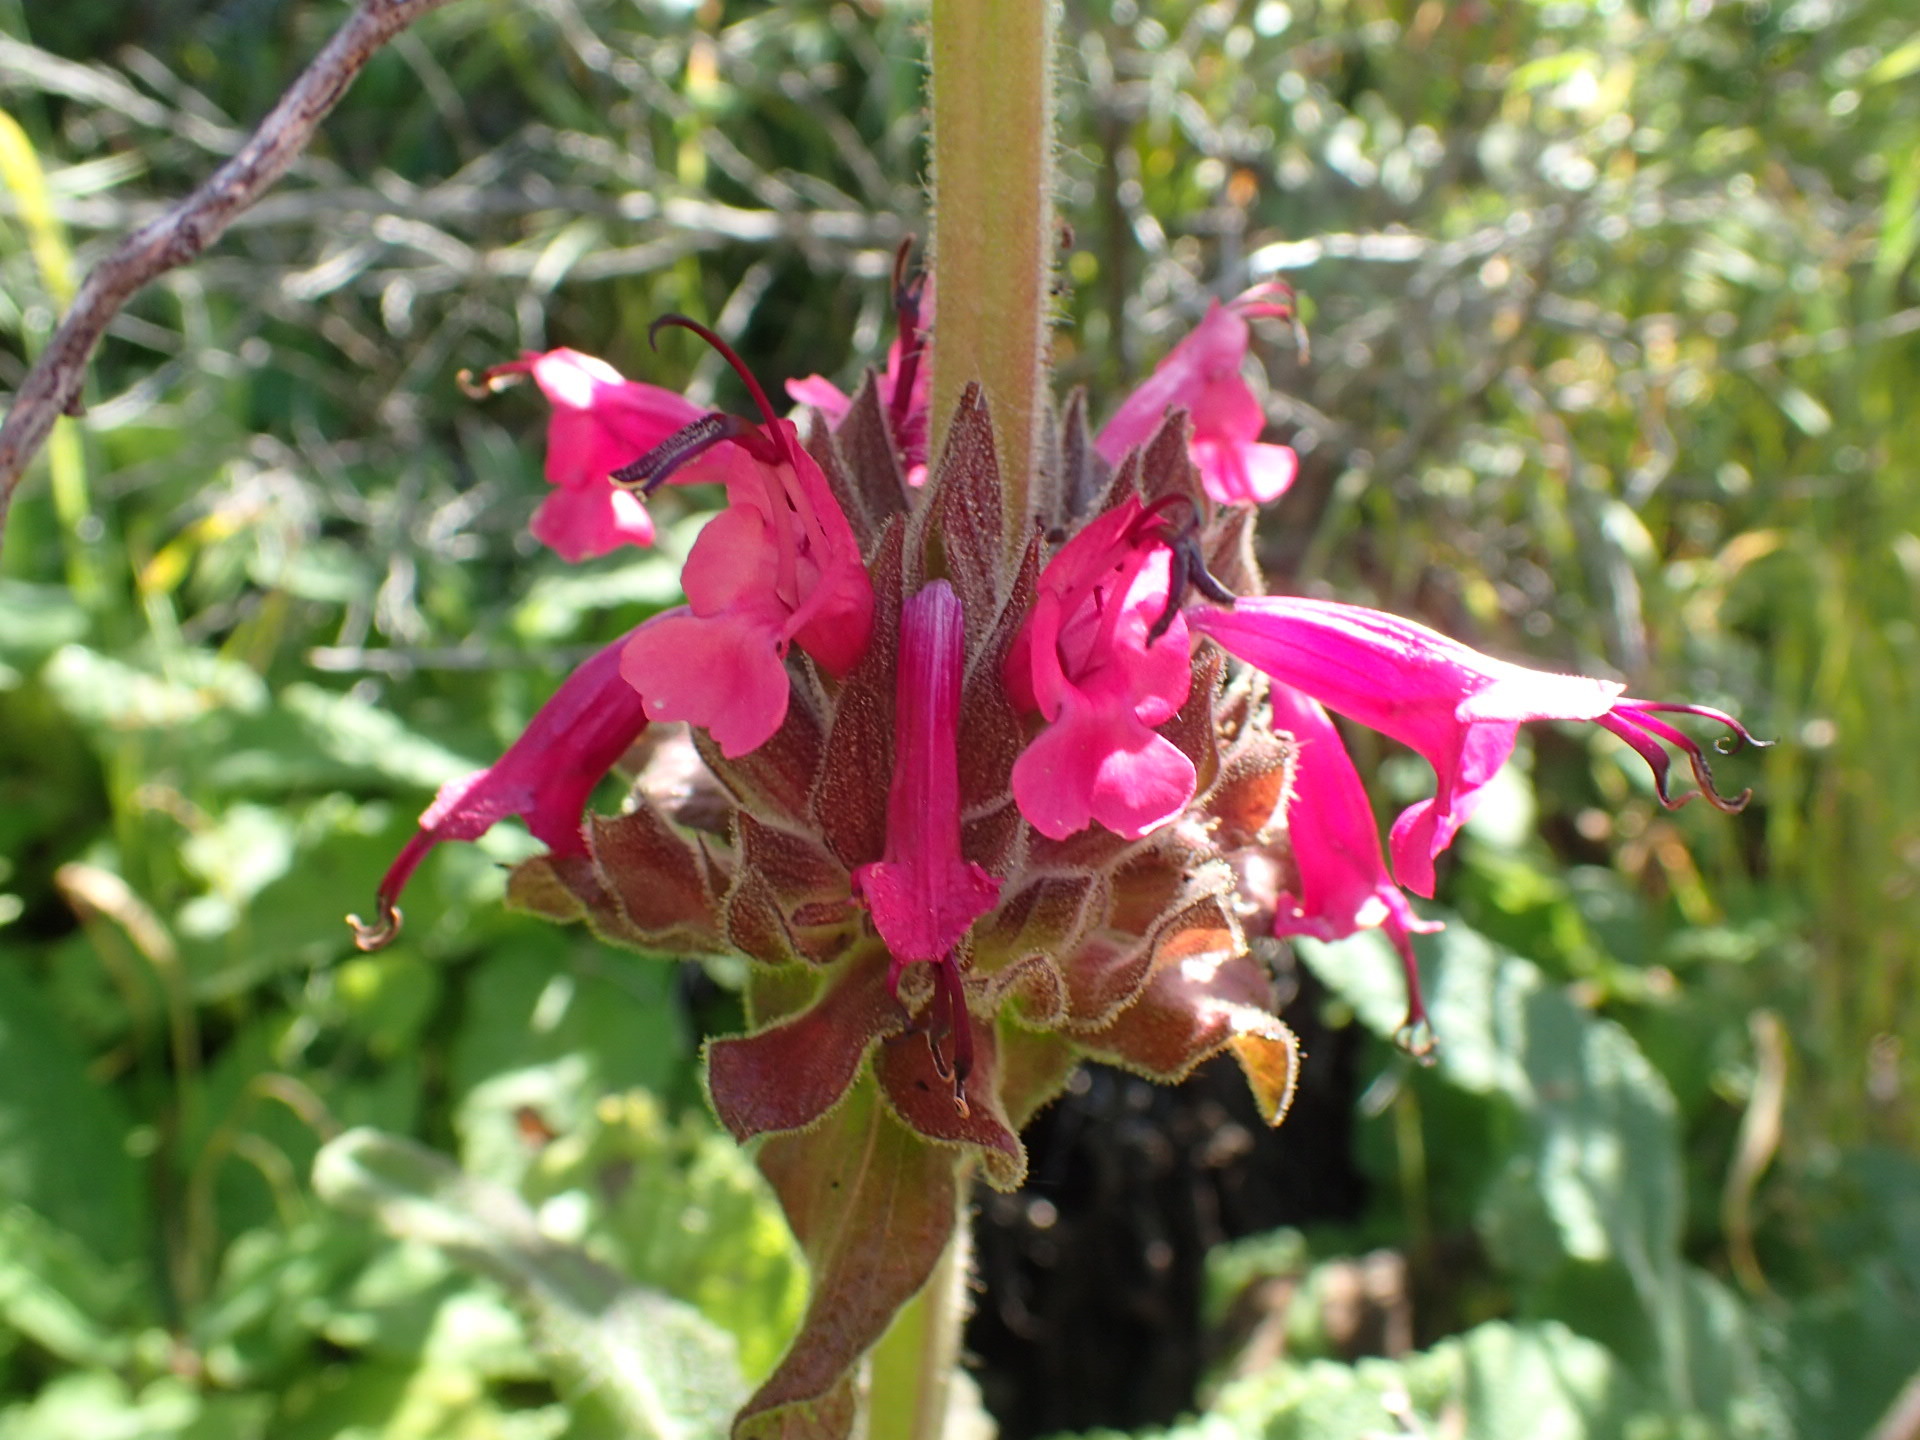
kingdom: Plantae
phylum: Tracheophyta
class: Magnoliopsida
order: Lamiales
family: Lamiaceae
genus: Salvia
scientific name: Salvia spathacea
